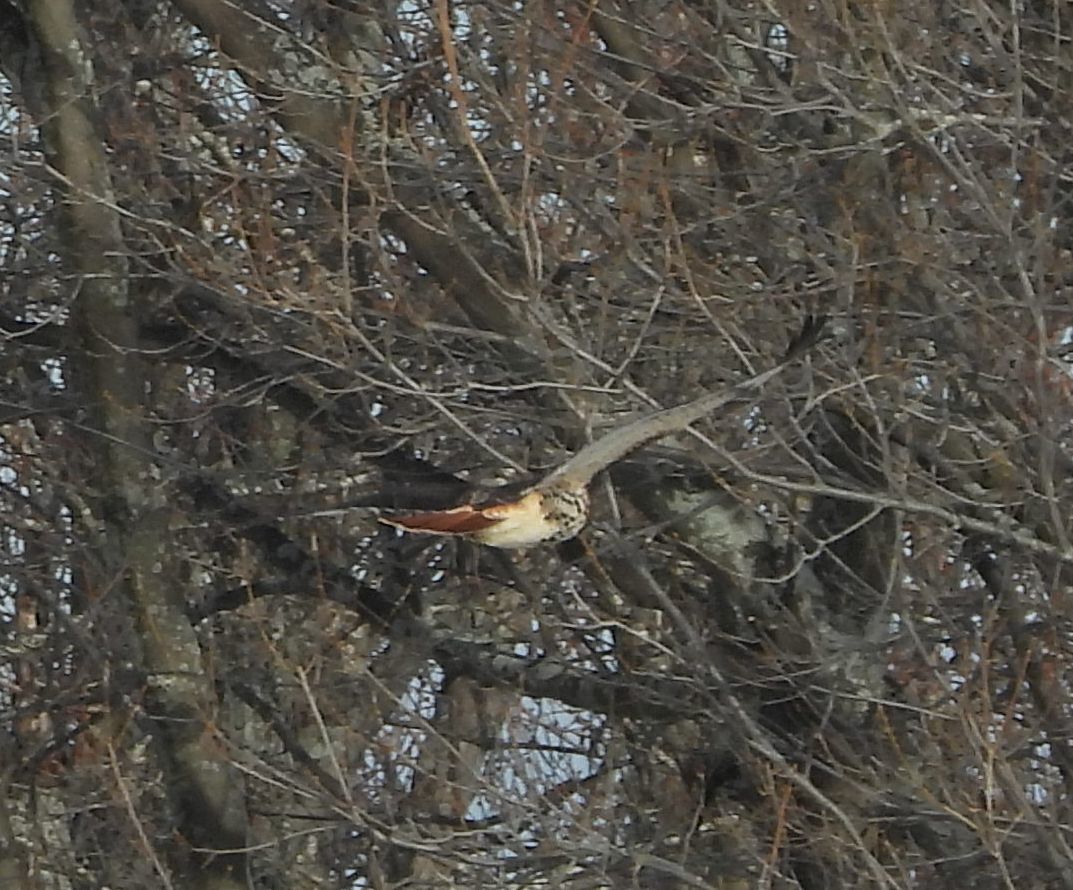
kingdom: Animalia
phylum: Chordata
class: Aves
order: Accipitriformes
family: Accipitridae
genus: Buteo
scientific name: Buteo jamaicensis
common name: Red-tailed hawk
